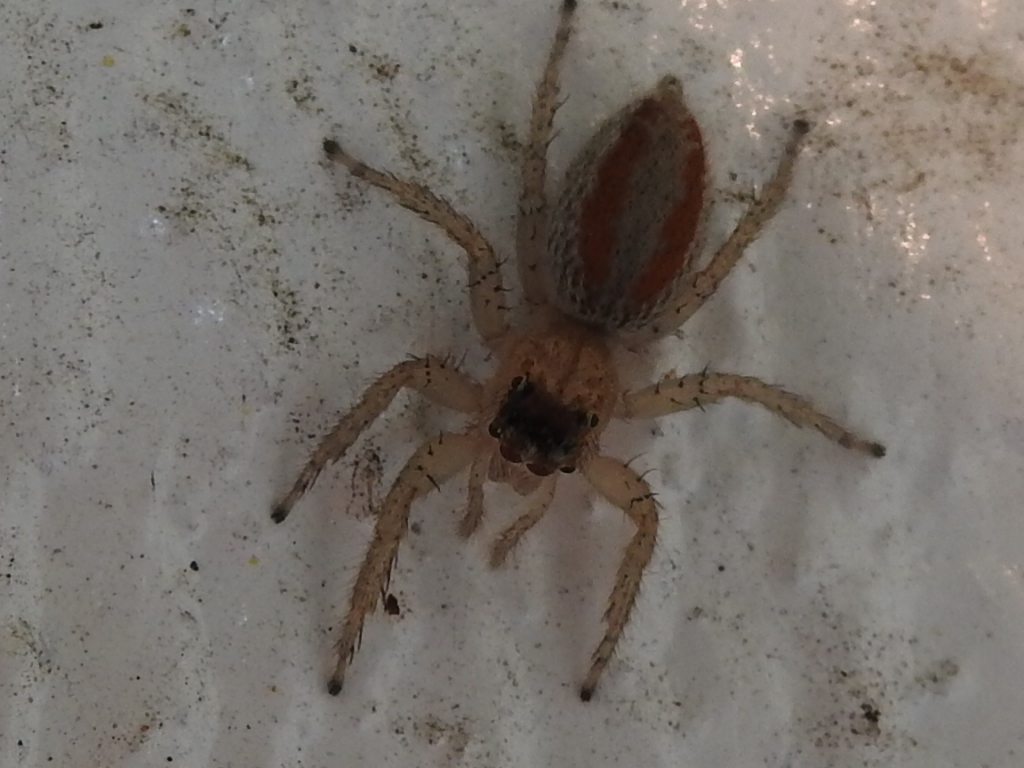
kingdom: Animalia
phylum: Arthropoda
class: Arachnida
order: Araneae
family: Salticidae
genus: Maevia
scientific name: Maevia inclemens
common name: Dimorphic jumper
